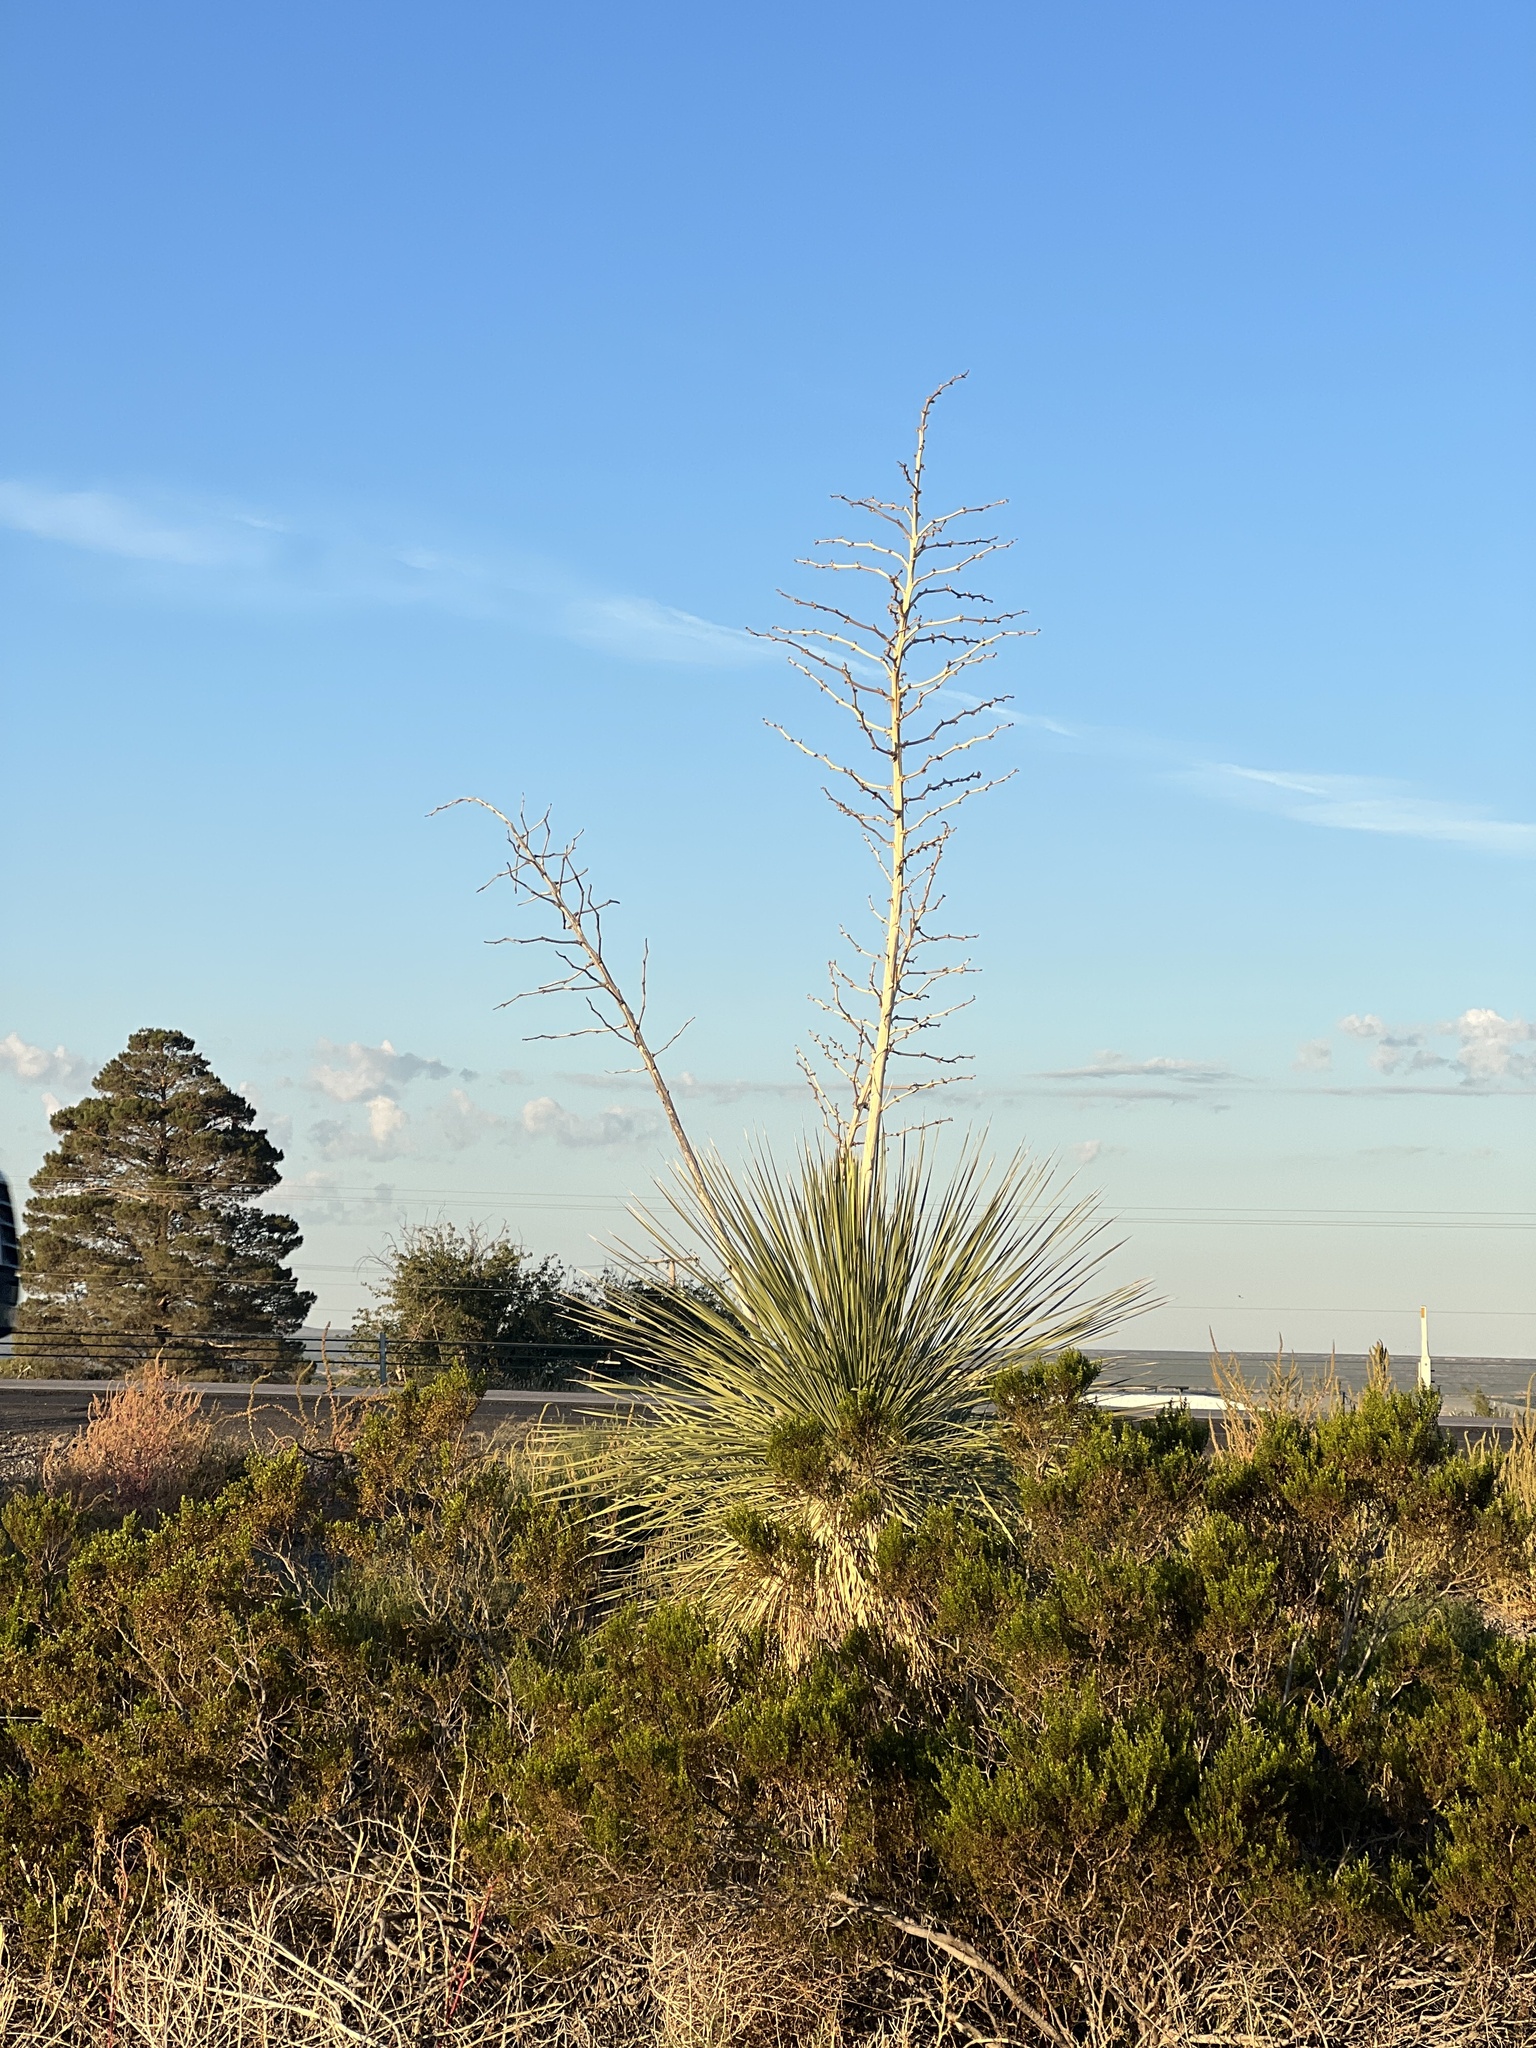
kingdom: Plantae
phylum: Tracheophyta
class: Liliopsida
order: Asparagales
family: Asparagaceae
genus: Yucca
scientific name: Yucca elata
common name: Palmella
